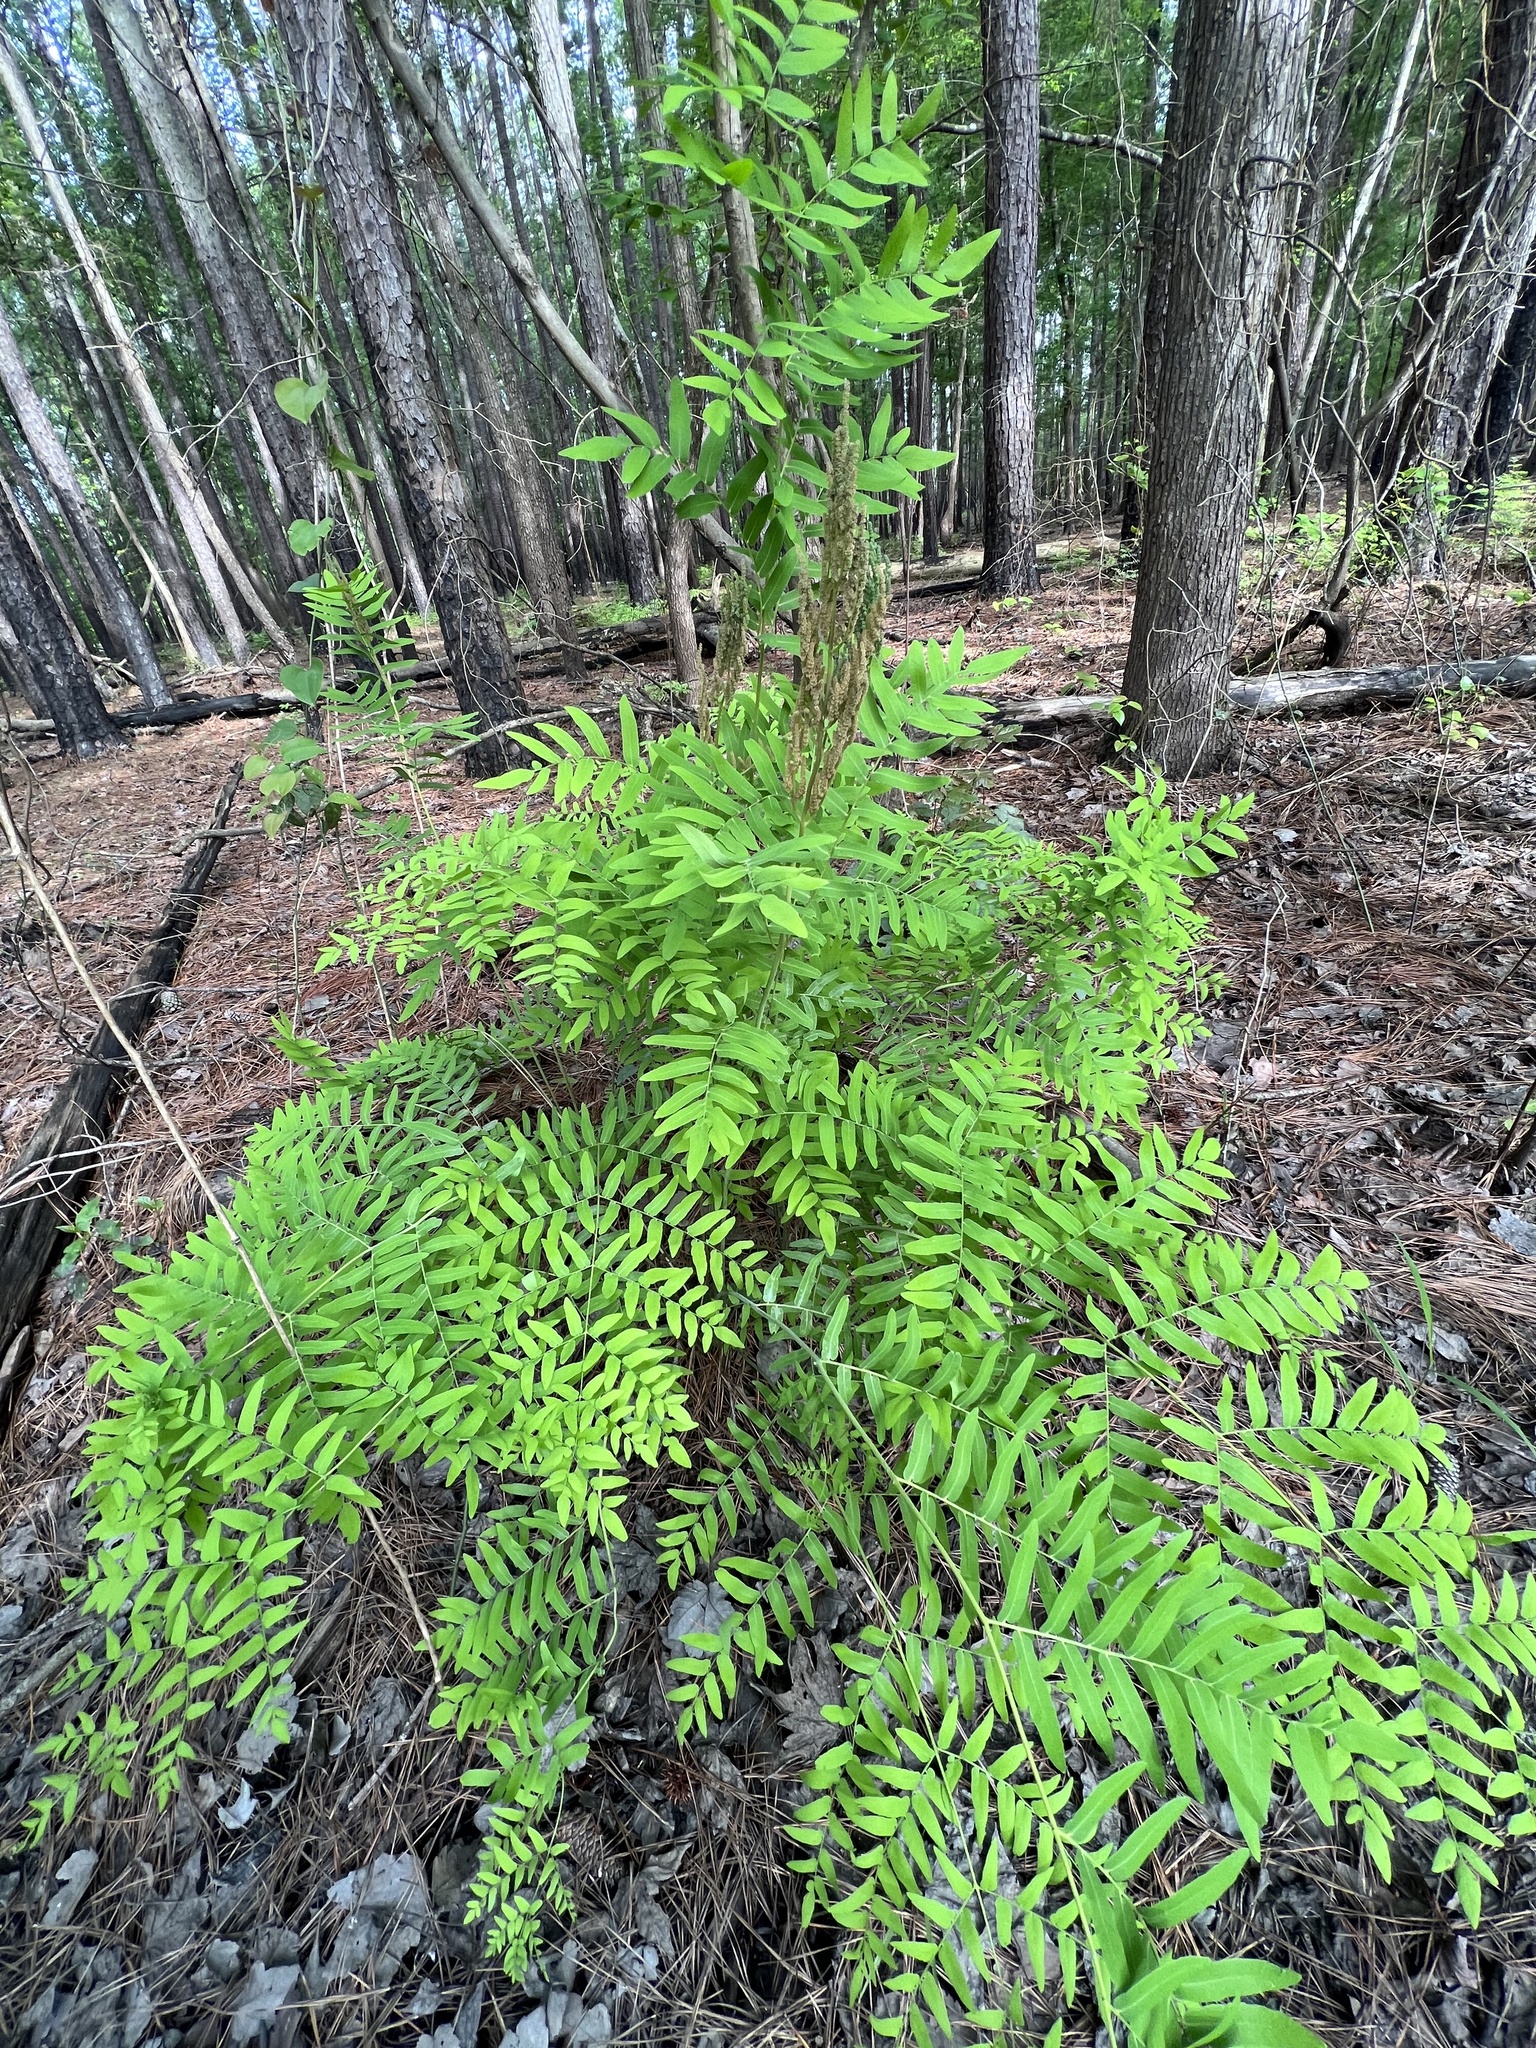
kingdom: Plantae
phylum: Tracheophyta
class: Polypodiopsida
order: Osmundales
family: Osmundaceae
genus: Osmunda
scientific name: Osmunda spectabilis
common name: American royal fern
